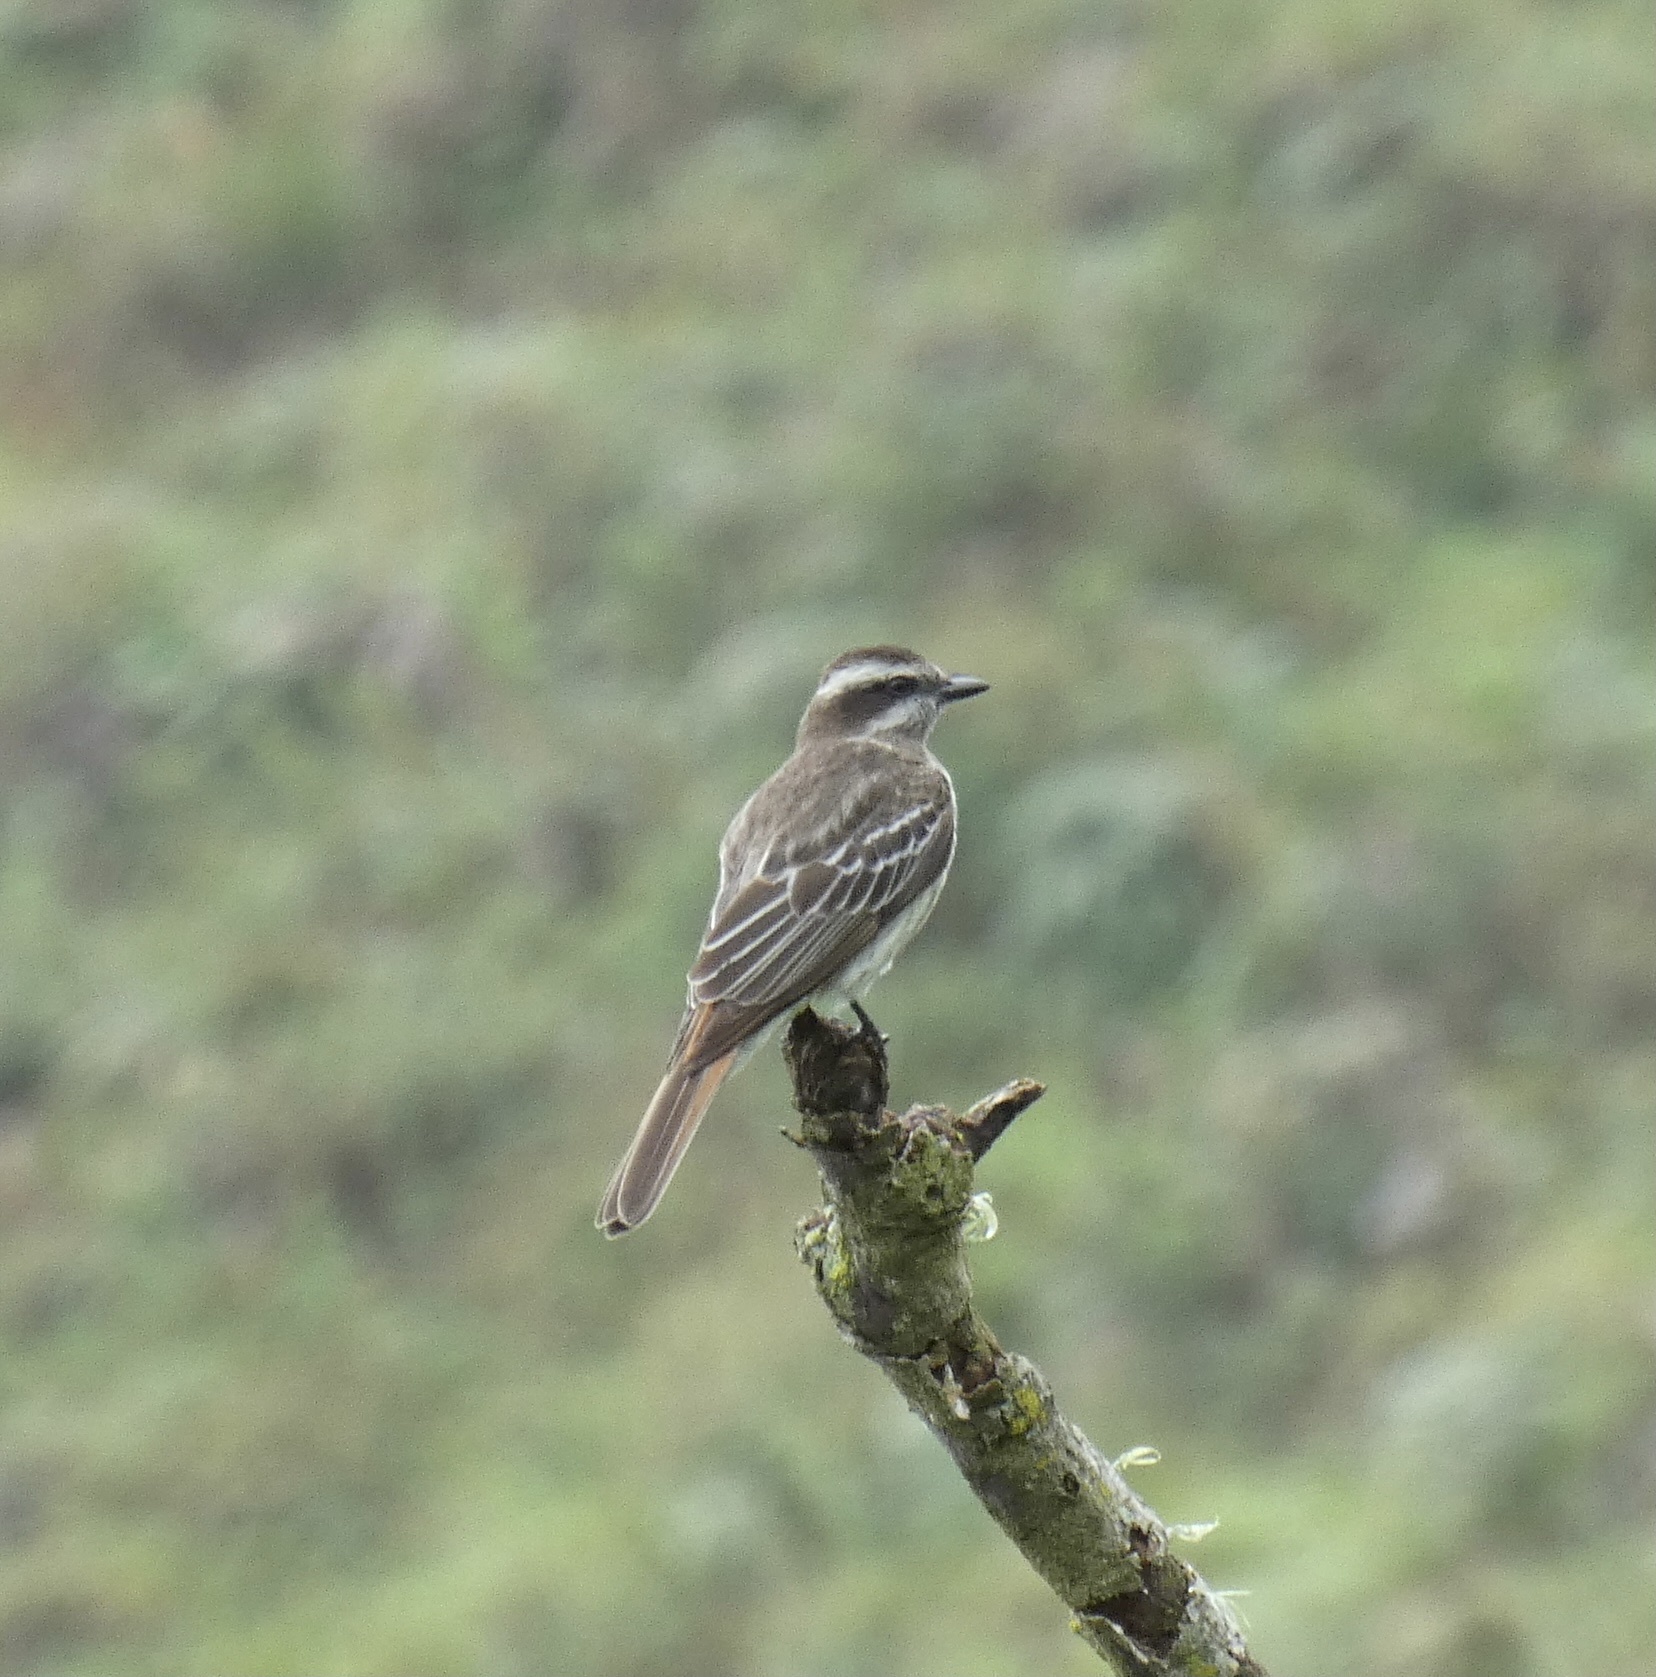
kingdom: Animalia
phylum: Chordata
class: Aves
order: Passeriformes
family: Tyrannidae
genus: Empidonomus
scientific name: Empidonomus varius
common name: Variegated flycatcher
